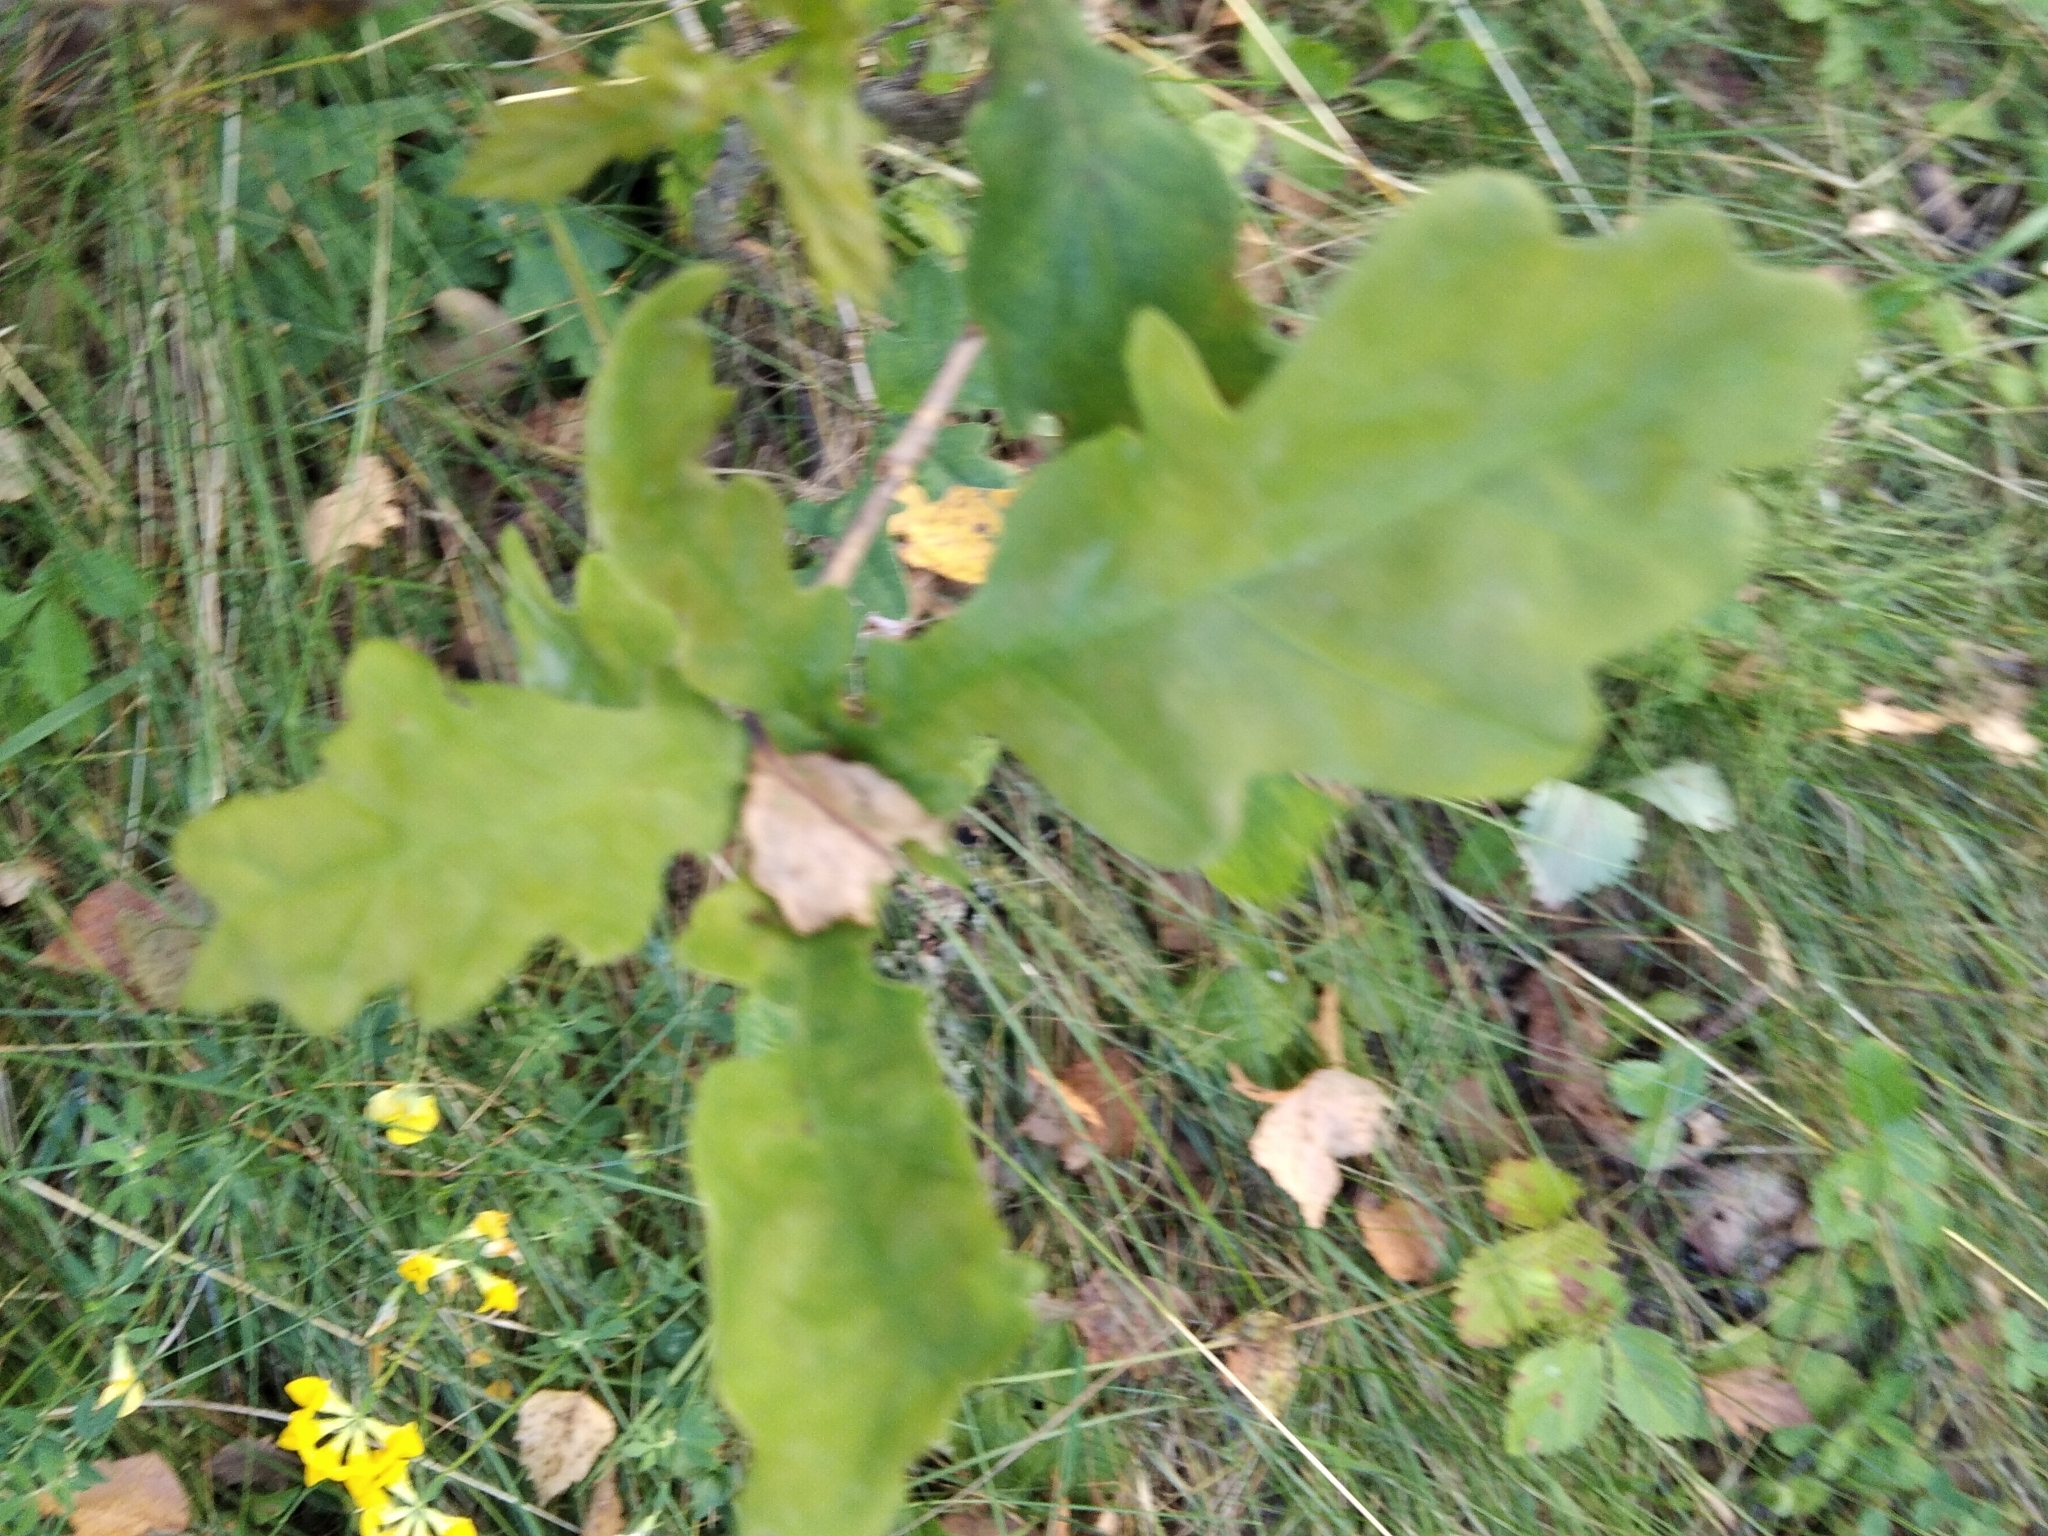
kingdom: Plantae
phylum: Tracheophyta
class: Magnoliopsida
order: Fagales
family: Fagaceae
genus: Quercus
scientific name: Quercus robur
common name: Pedunculate oak
